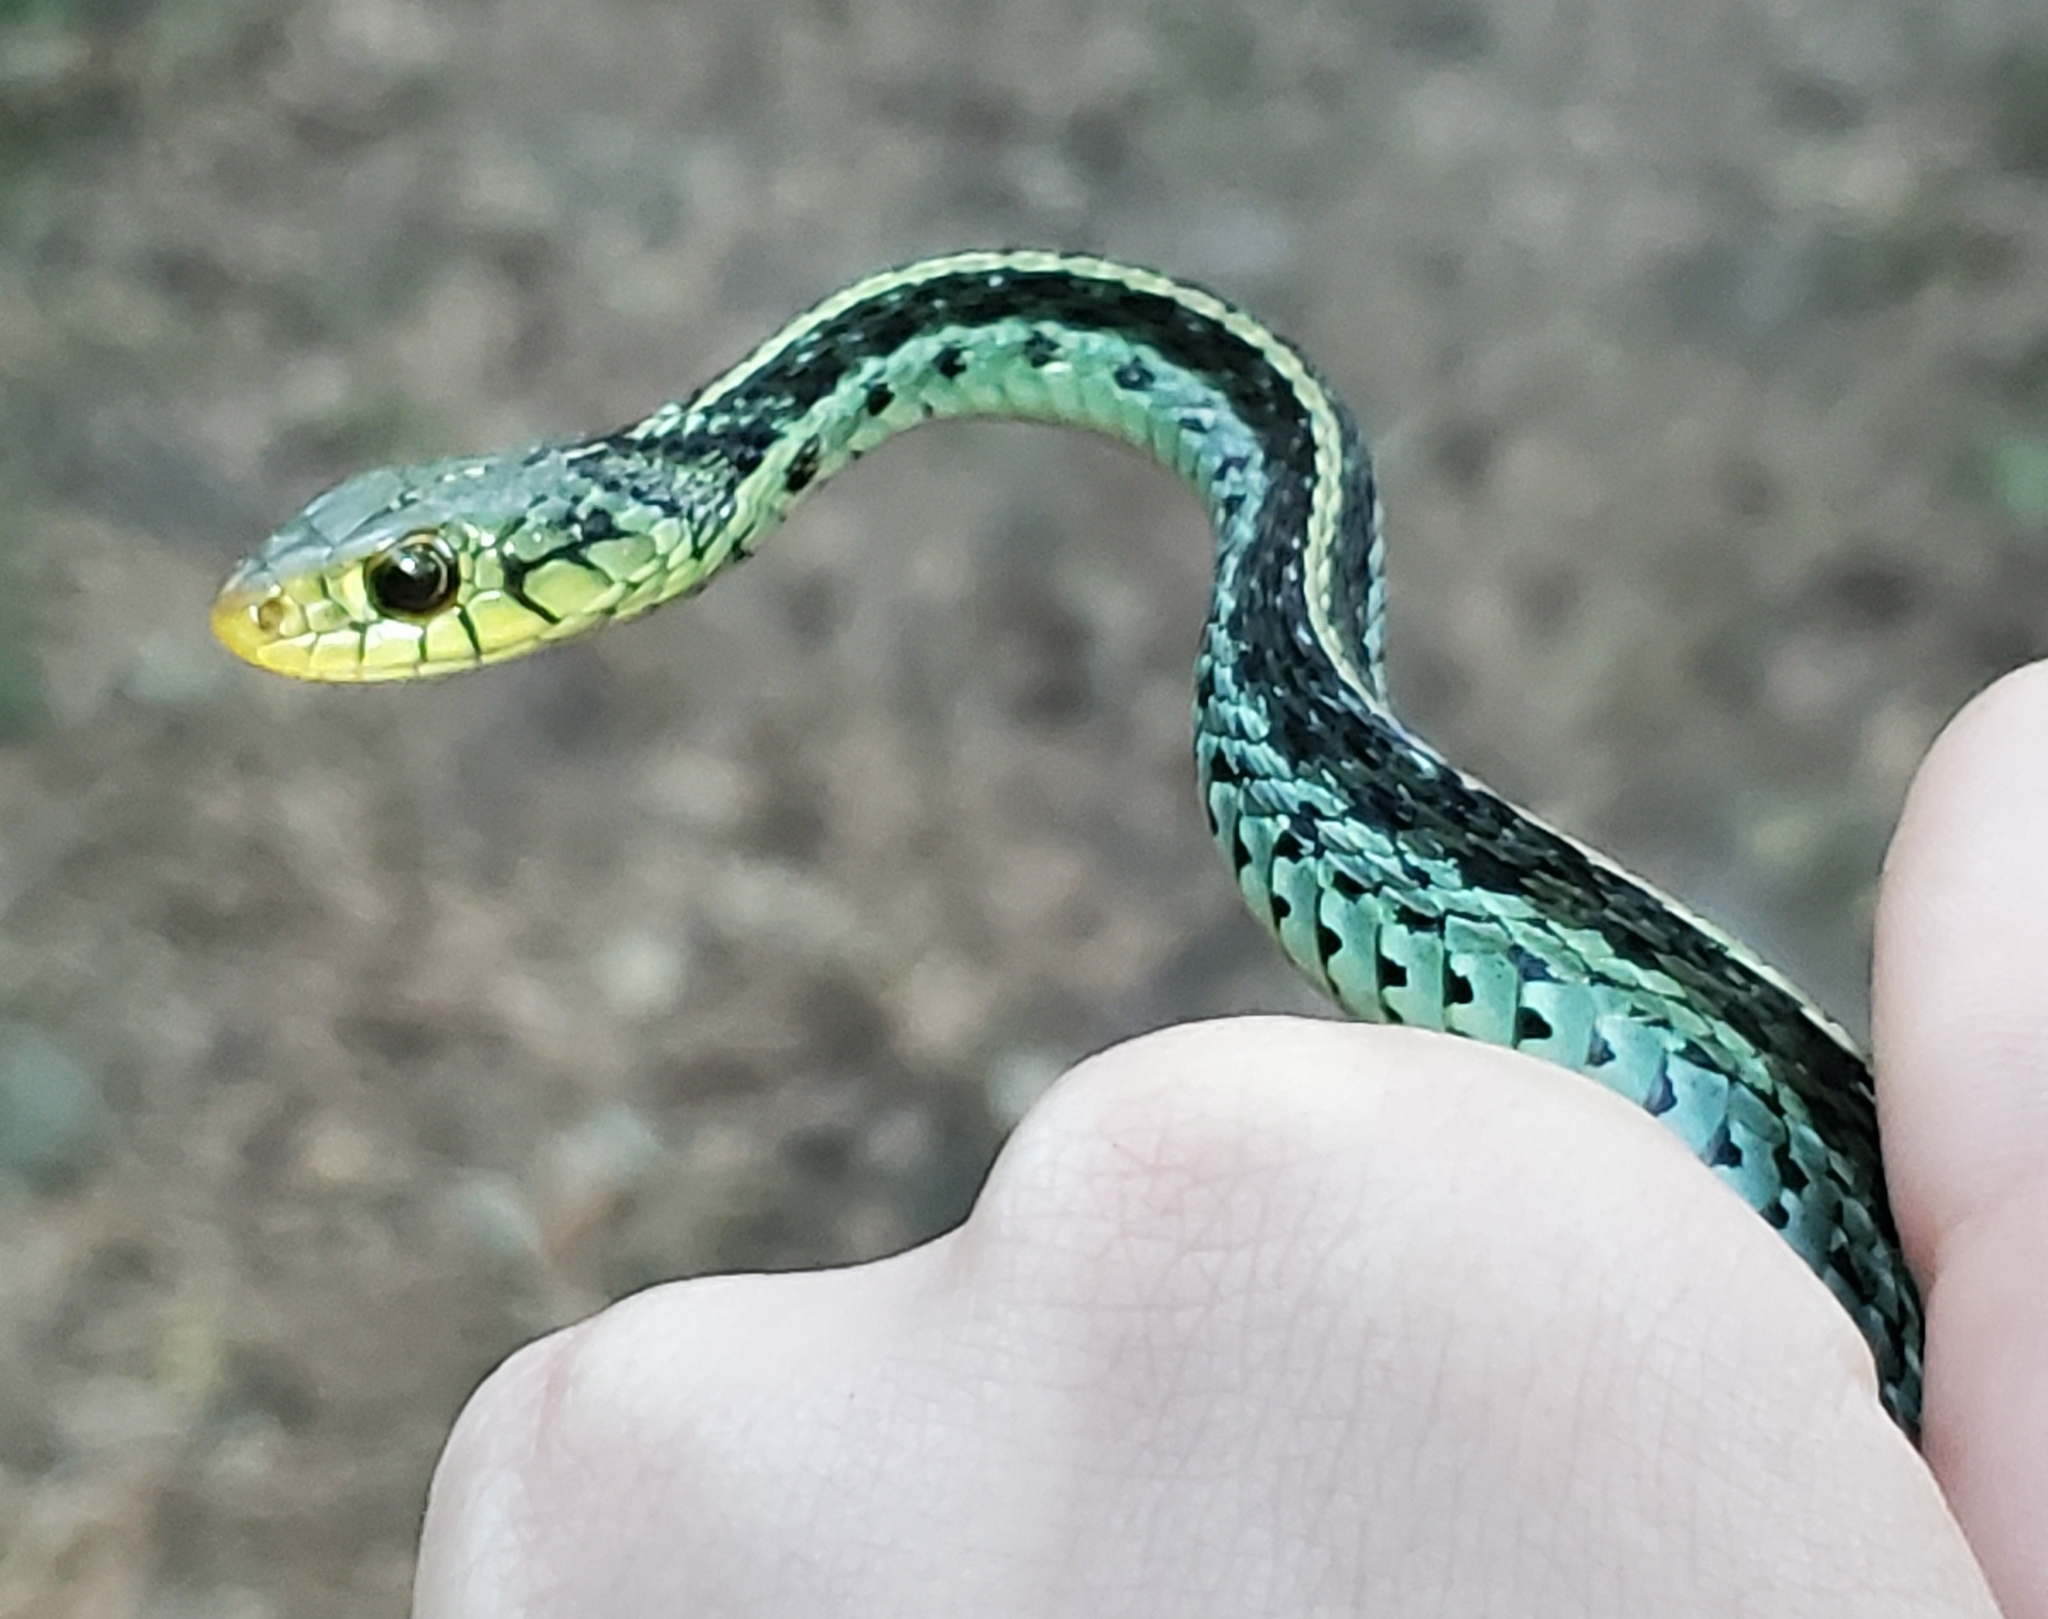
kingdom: Animalia
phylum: Chordata
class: Squamata
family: Colubridae
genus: Thamnophis
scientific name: Thamnophis sirtalis
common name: Common garter snake
